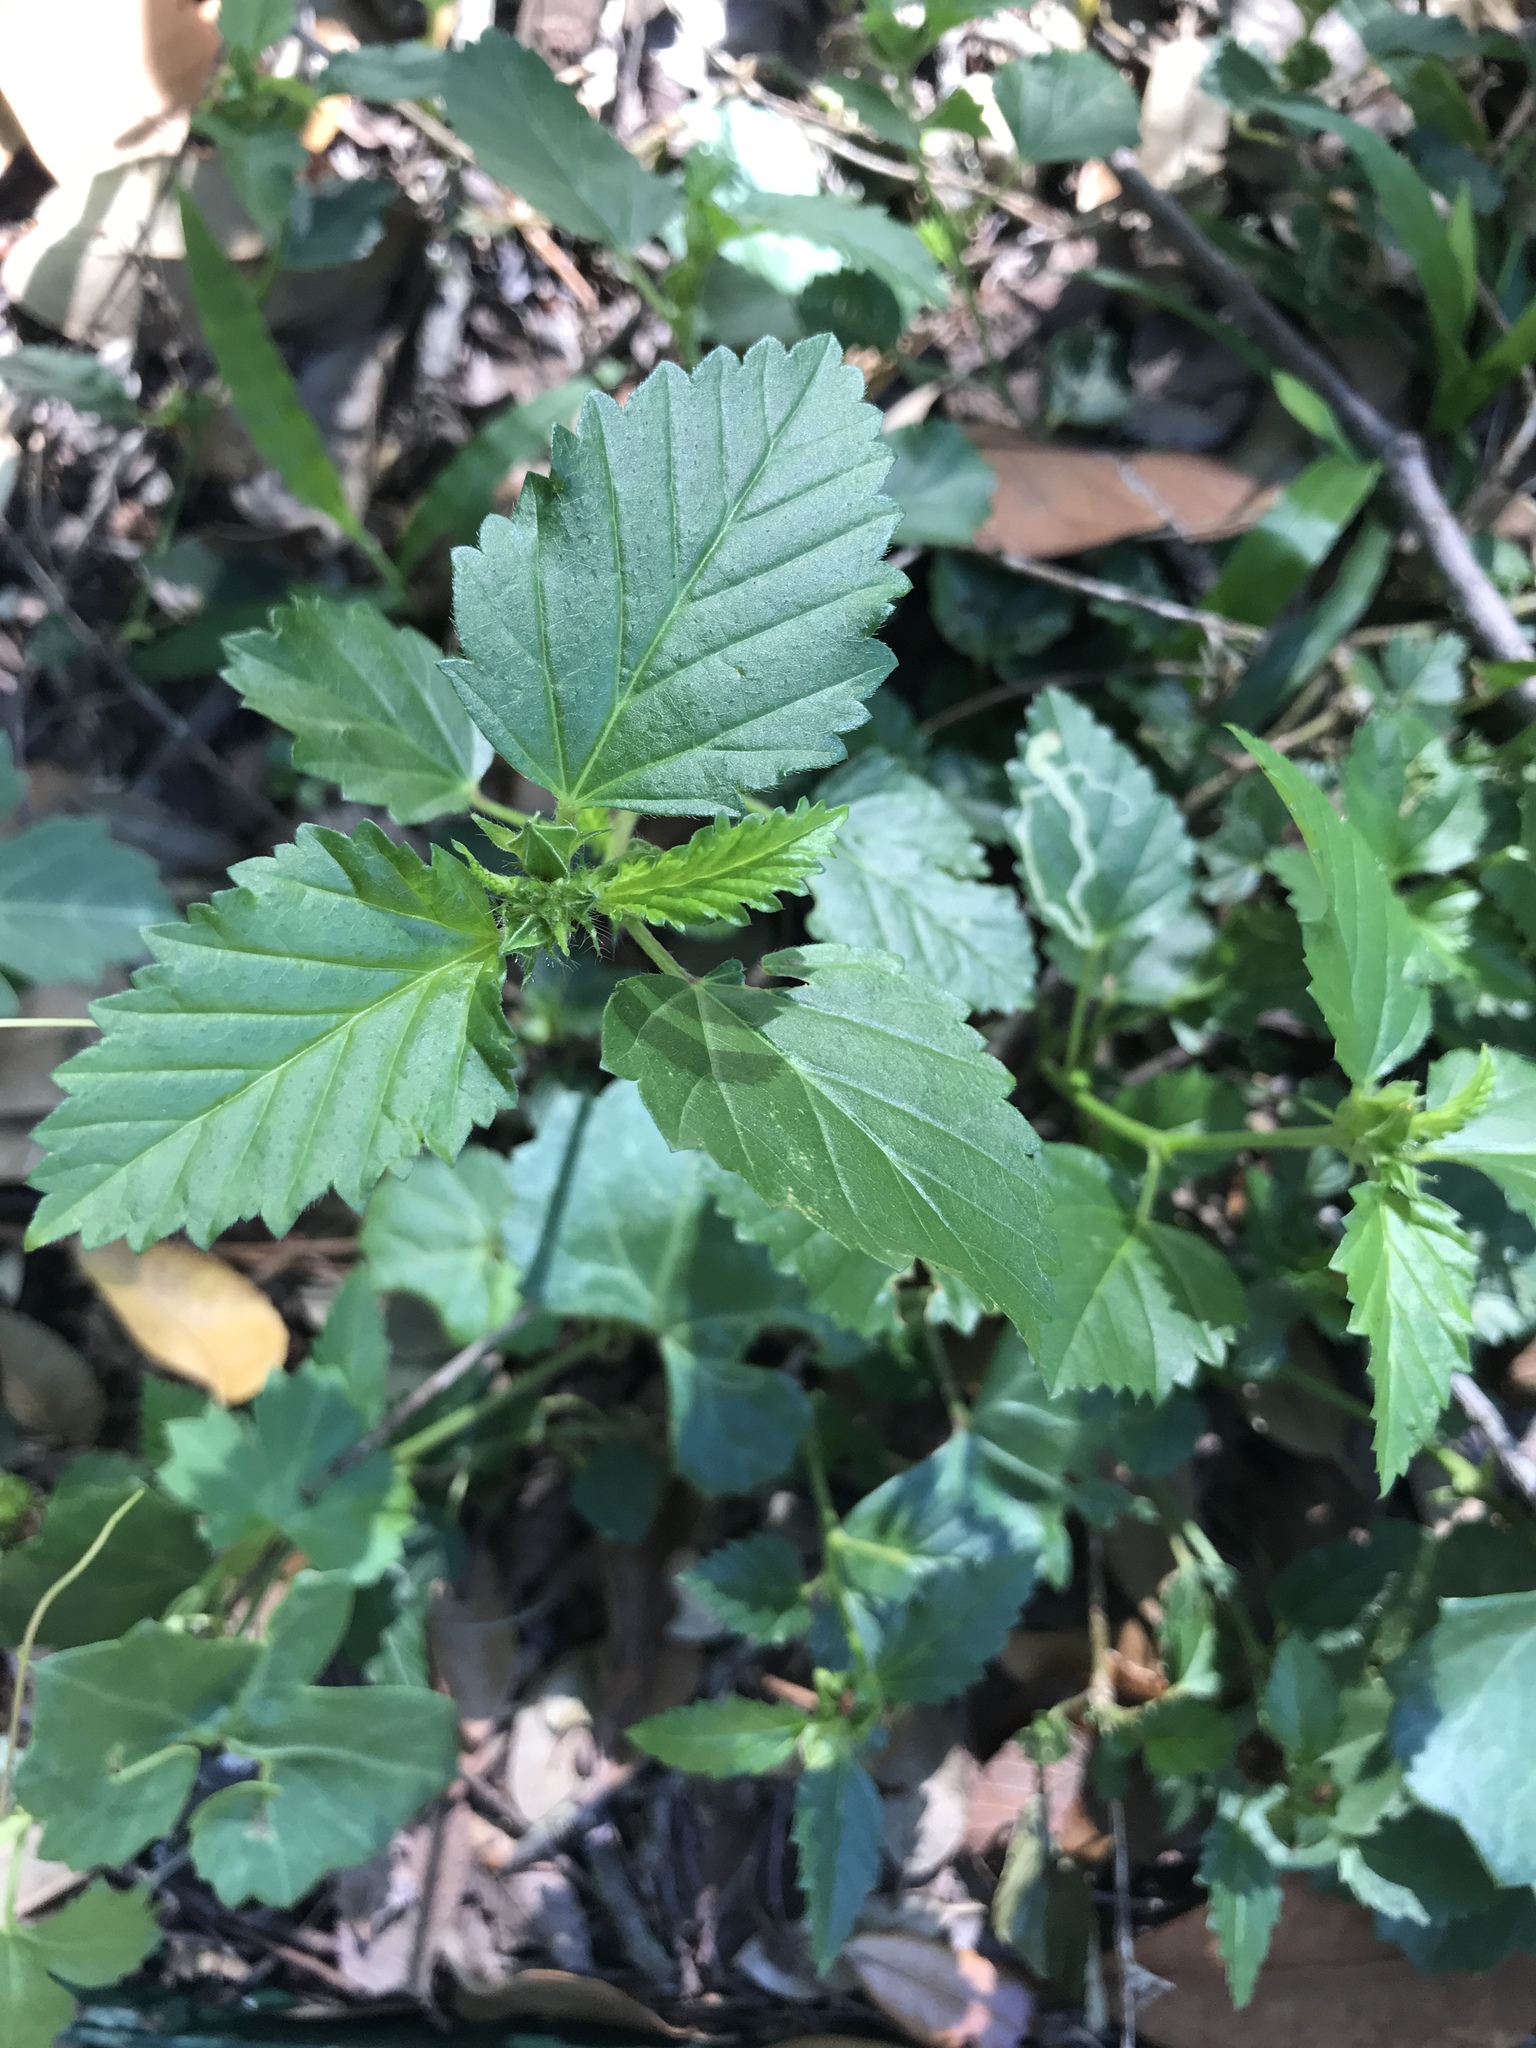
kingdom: Plantae
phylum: Tracheophyta
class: Magnoliopsida
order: Malvales
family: Malvaceae
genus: Malvastrum
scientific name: Malvastrum coromandelianum
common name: Threelobe false mallow
